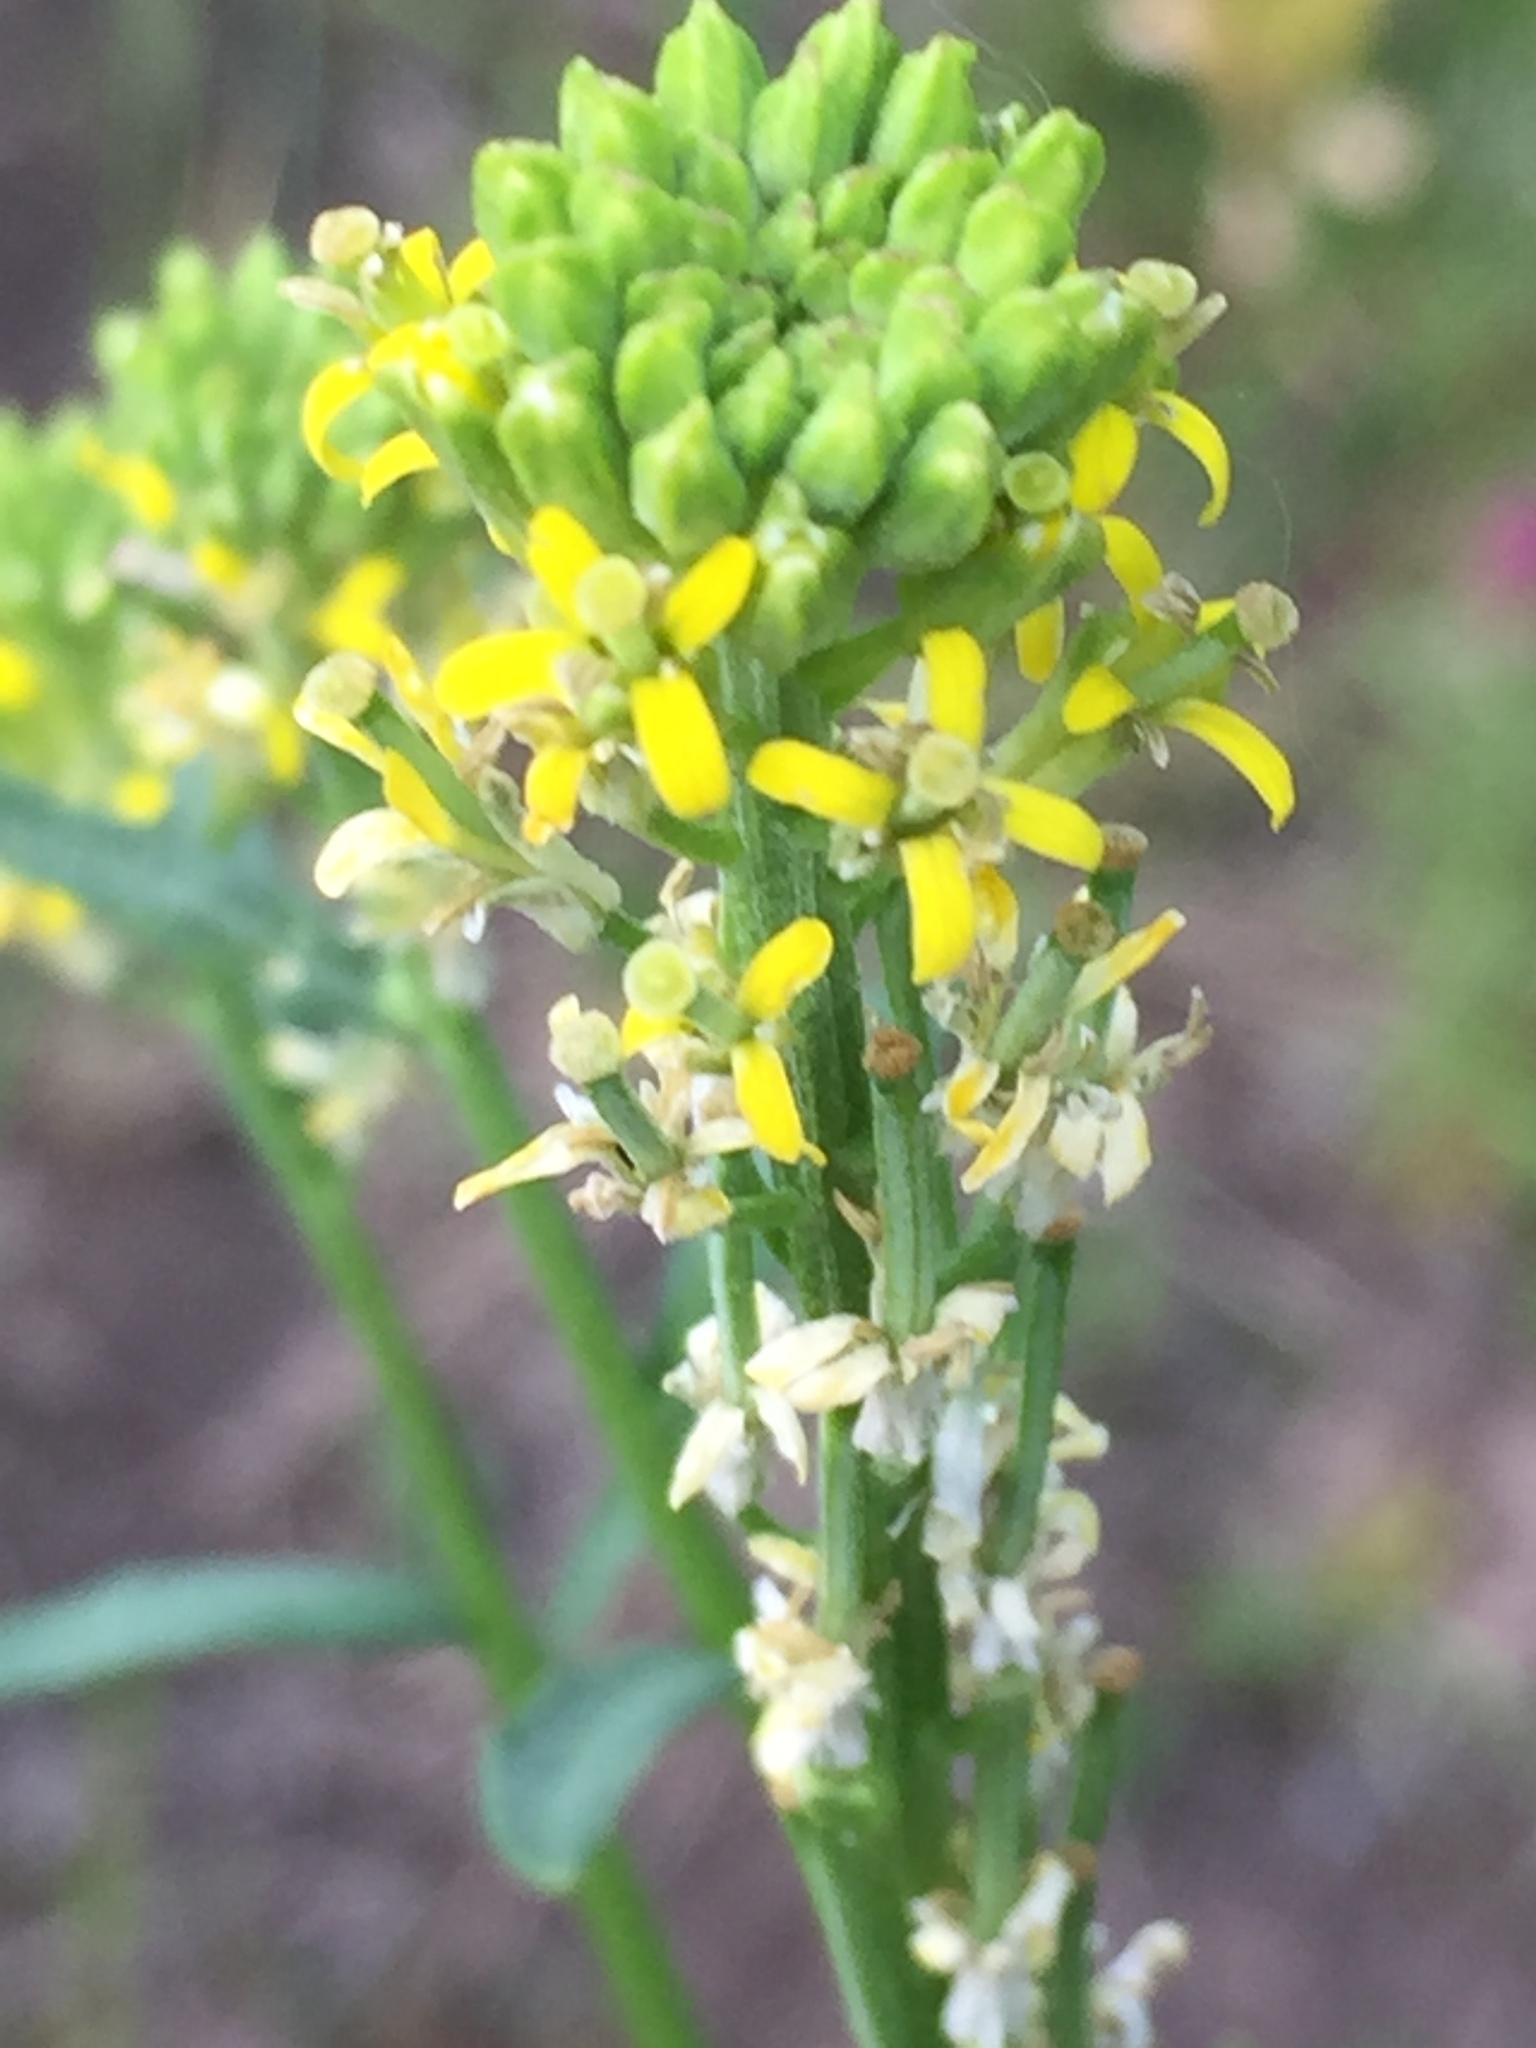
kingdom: Plantae
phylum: Tracheophyta
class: Magnoliopsida
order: Brassicales
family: Brassicaceae
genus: Erysimum
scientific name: Erysimum hieraciifolium
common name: European wallflower
